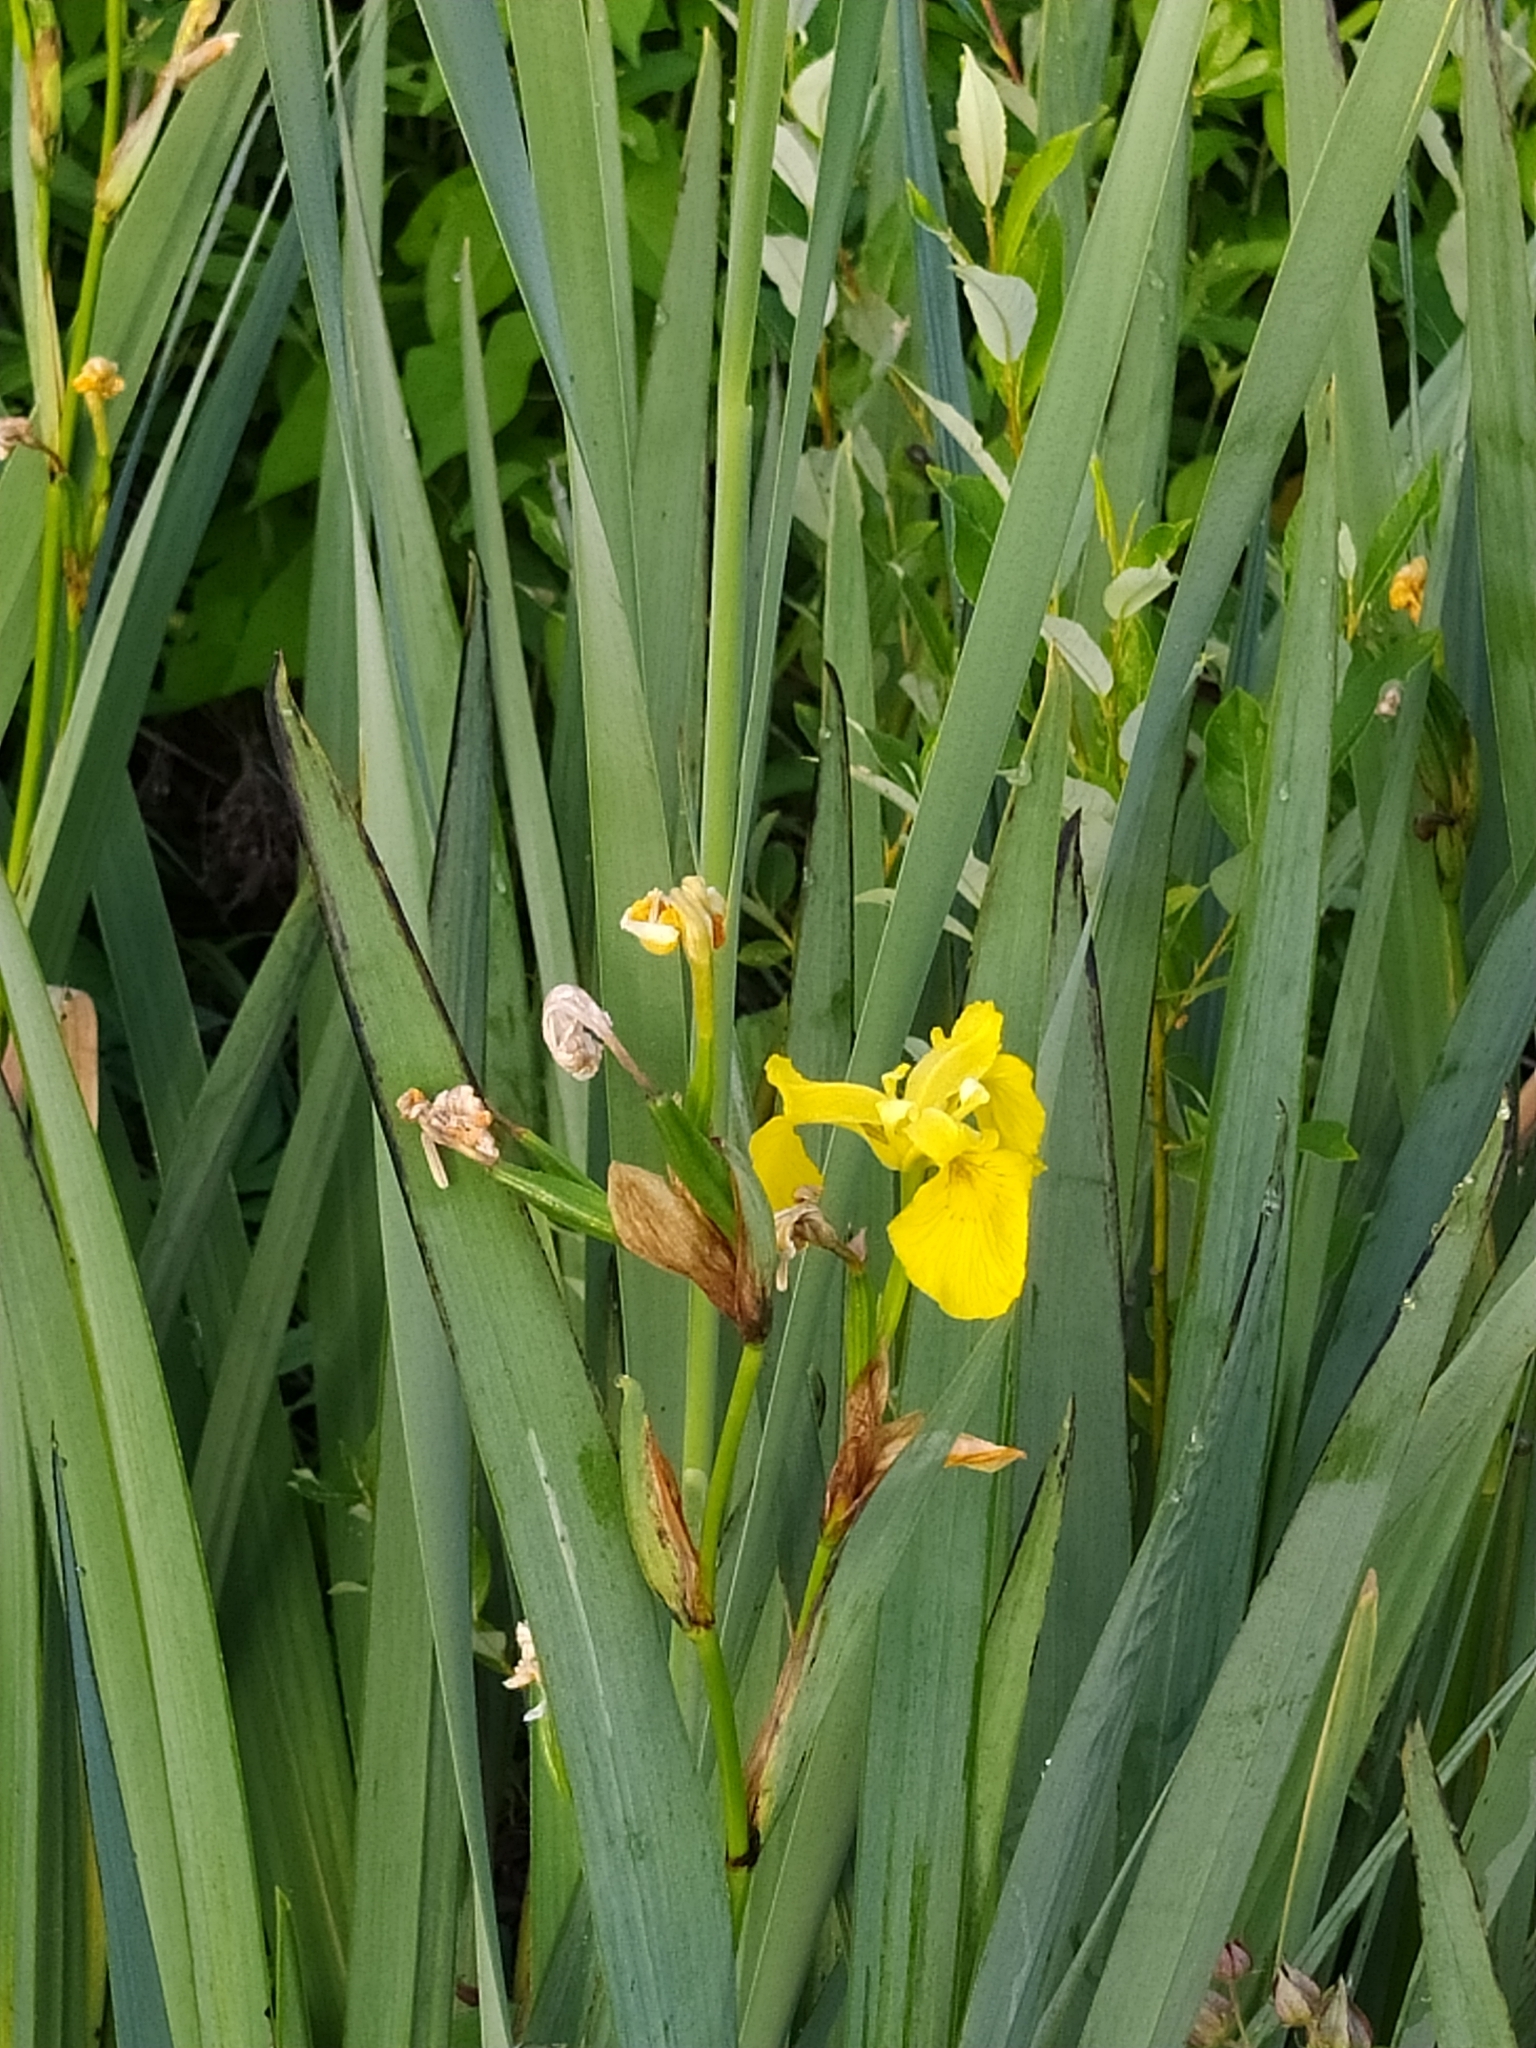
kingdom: Plantae
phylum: Tracheophyta
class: Liliopsida
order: Asparagales
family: Iridaceae
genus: Iris
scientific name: Iris pseudacorus
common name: Yellow flag
